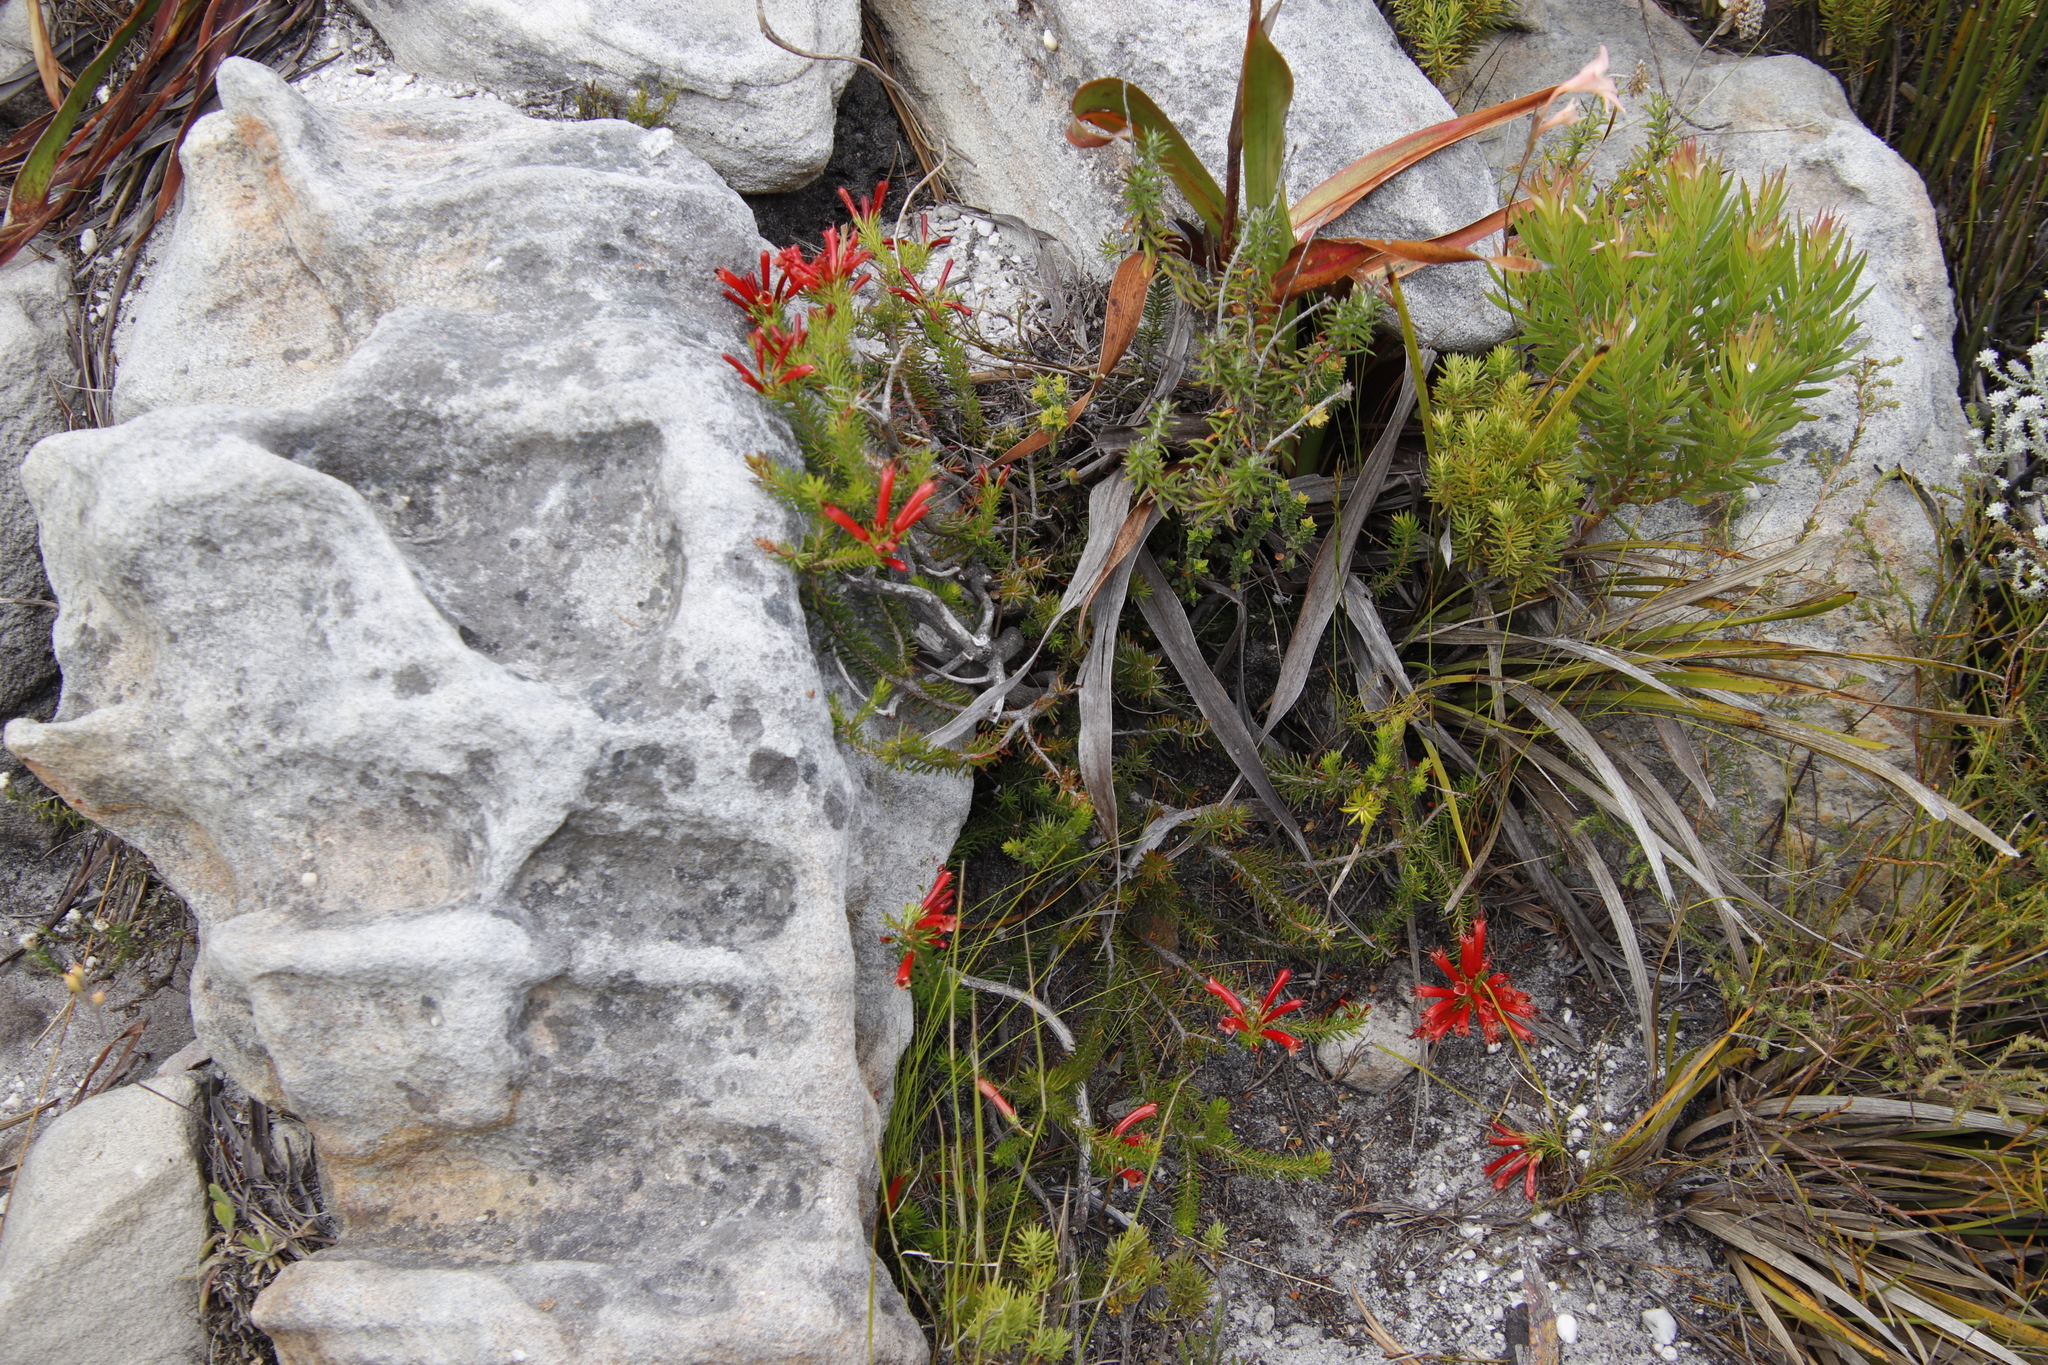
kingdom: Plantae
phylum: Tracheophyta
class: Magnoliopsida
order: Proteales
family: Proteaceae
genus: Leucadendron
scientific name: Leucadendron xanthoconus
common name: Sickle-leaf conebush
